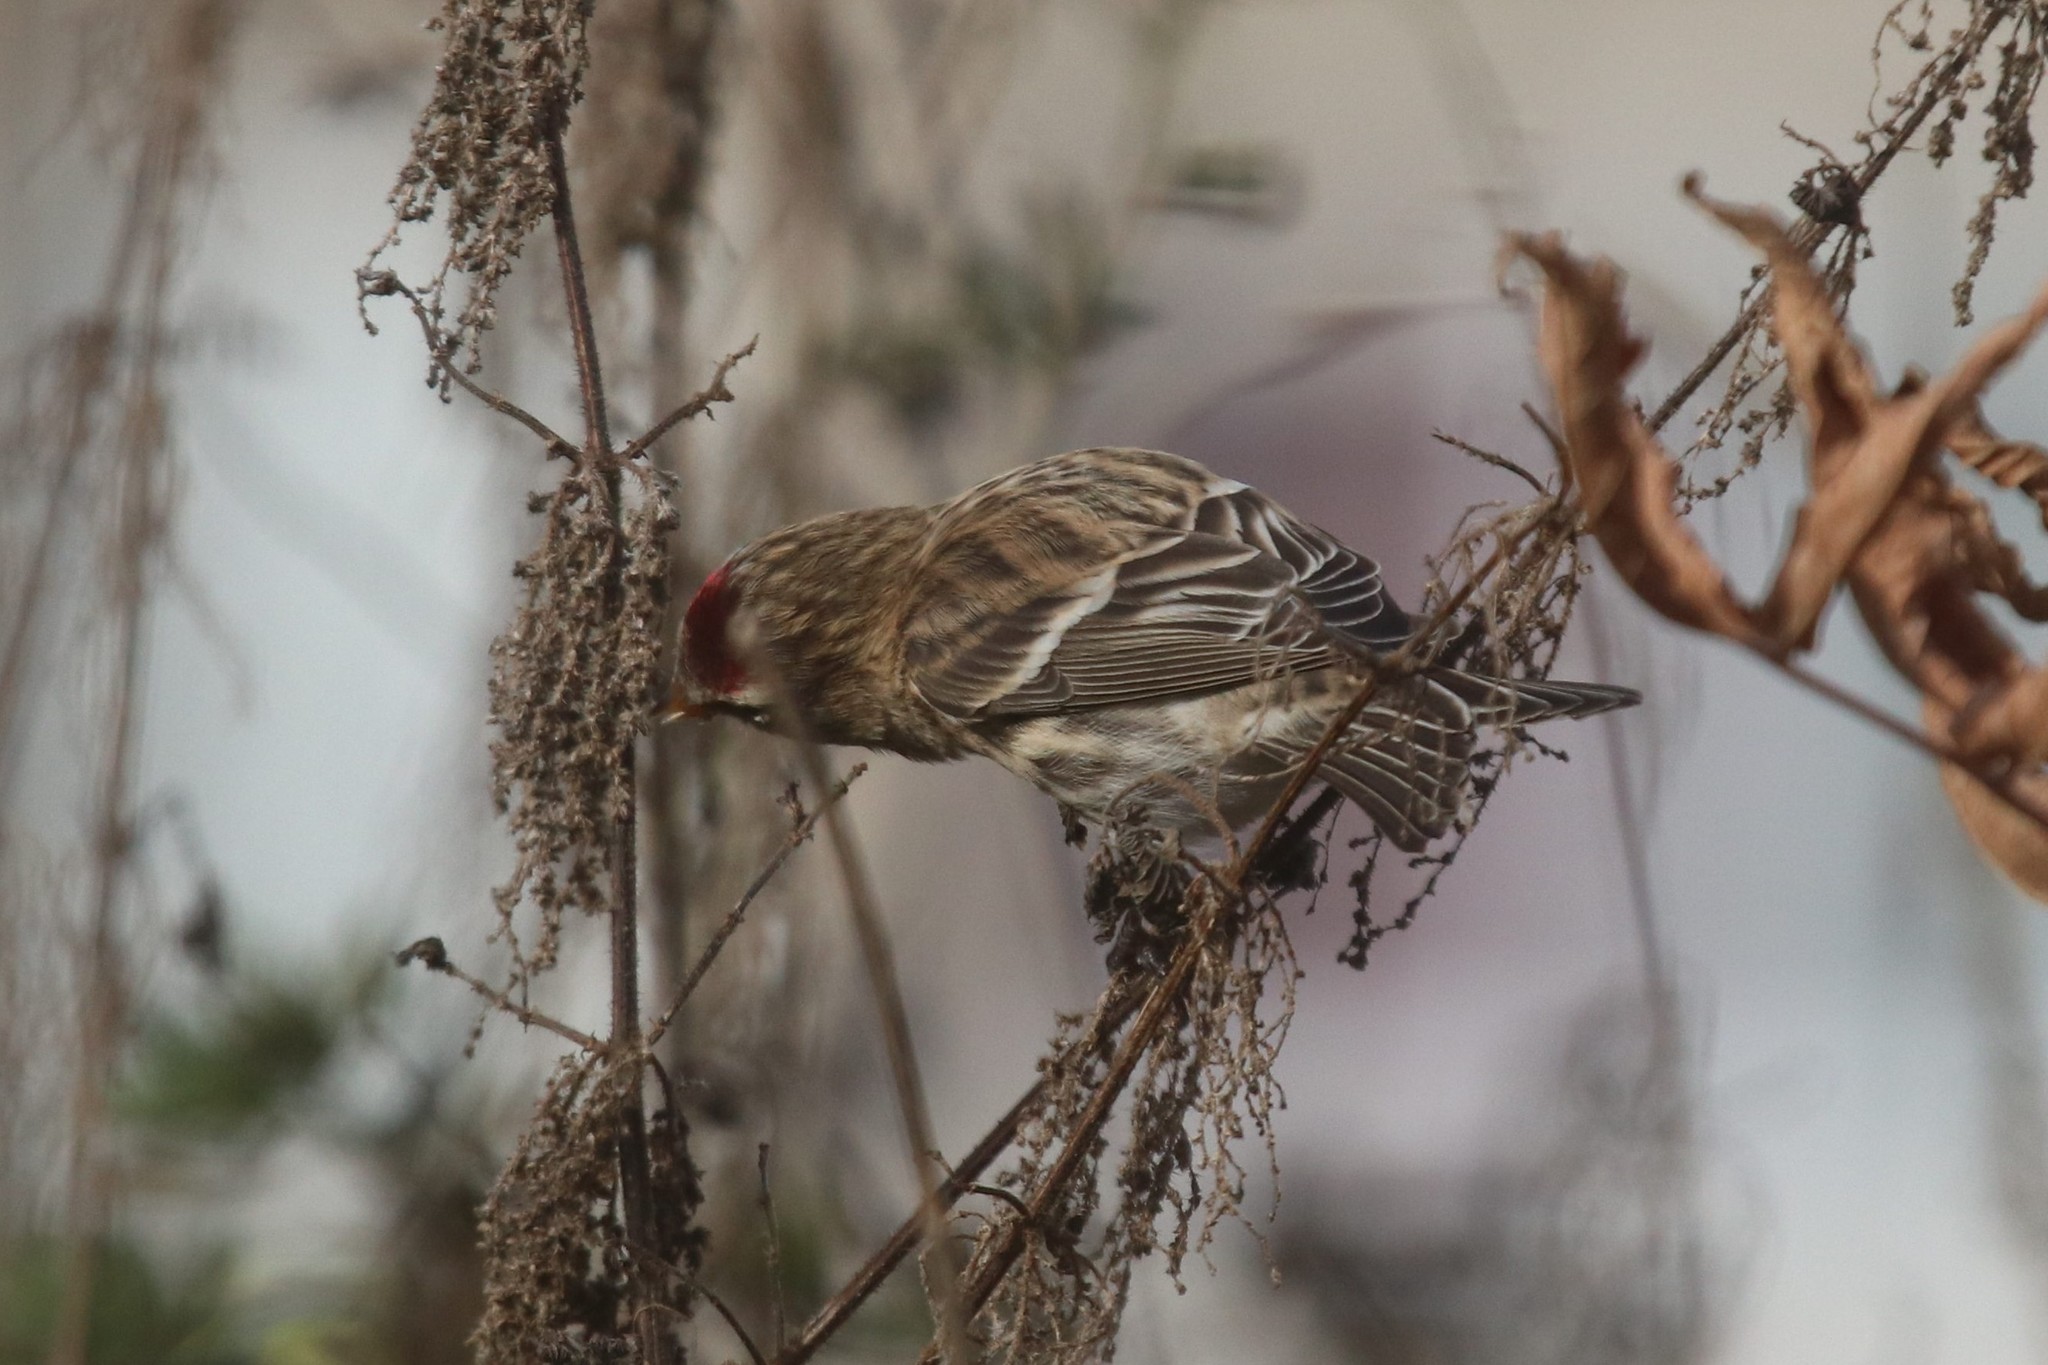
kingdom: Animalia
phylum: Chordata
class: Aves
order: Passeriformes
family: Fringillidae
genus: Acanthis
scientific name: Acanthis flammea
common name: Common redpoll
